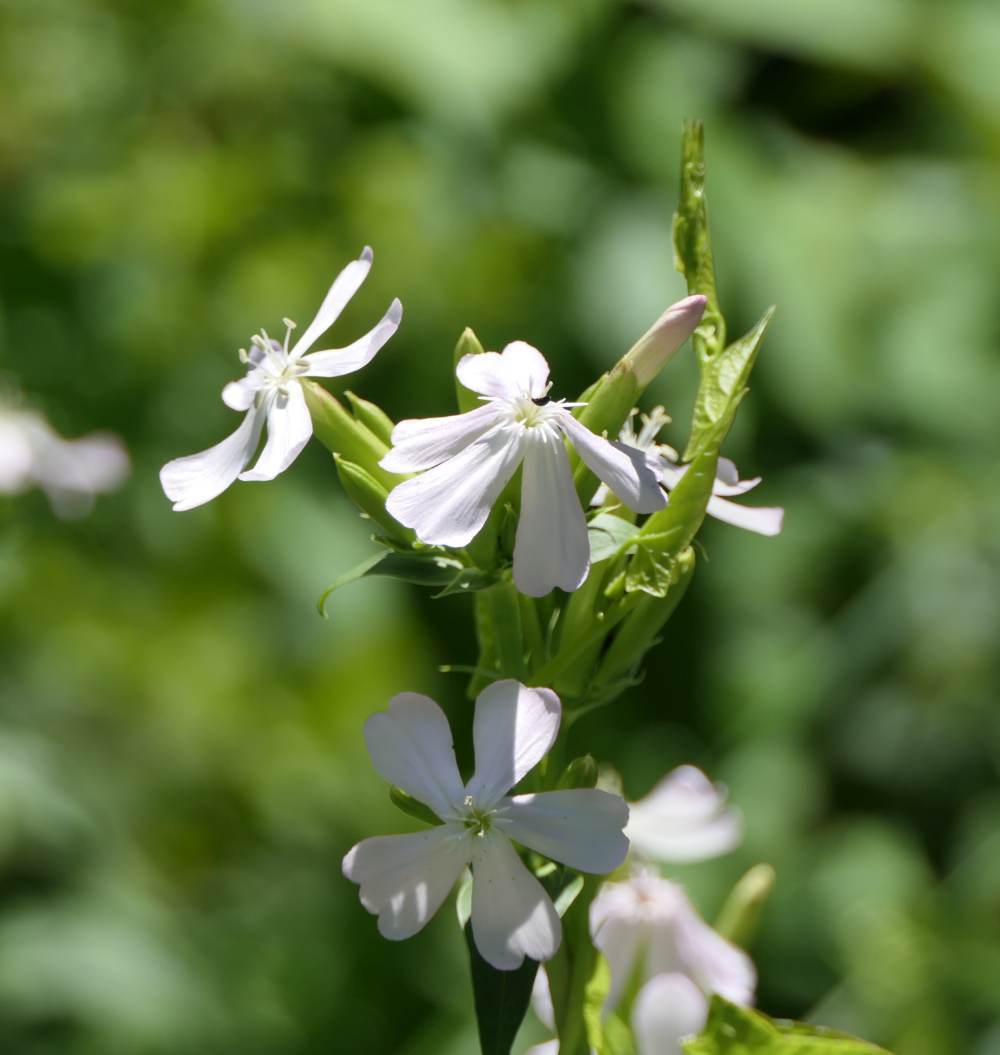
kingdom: Plantae
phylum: Tracheophyta
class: Magnoliopsida
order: Caryophyllales
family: Caryophyllaceae
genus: Saponaria
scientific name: Saponaria officinalis
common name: Soapwort
